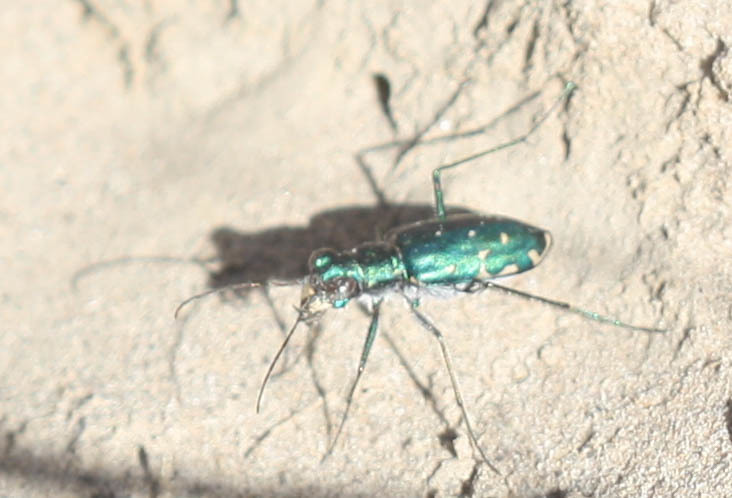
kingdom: Animalia
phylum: Arthropoda
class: Insecta
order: Coleoptera
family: Carabidae
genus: Cicindela
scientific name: Cicindela punctulata
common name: Punctured tiger beetle
